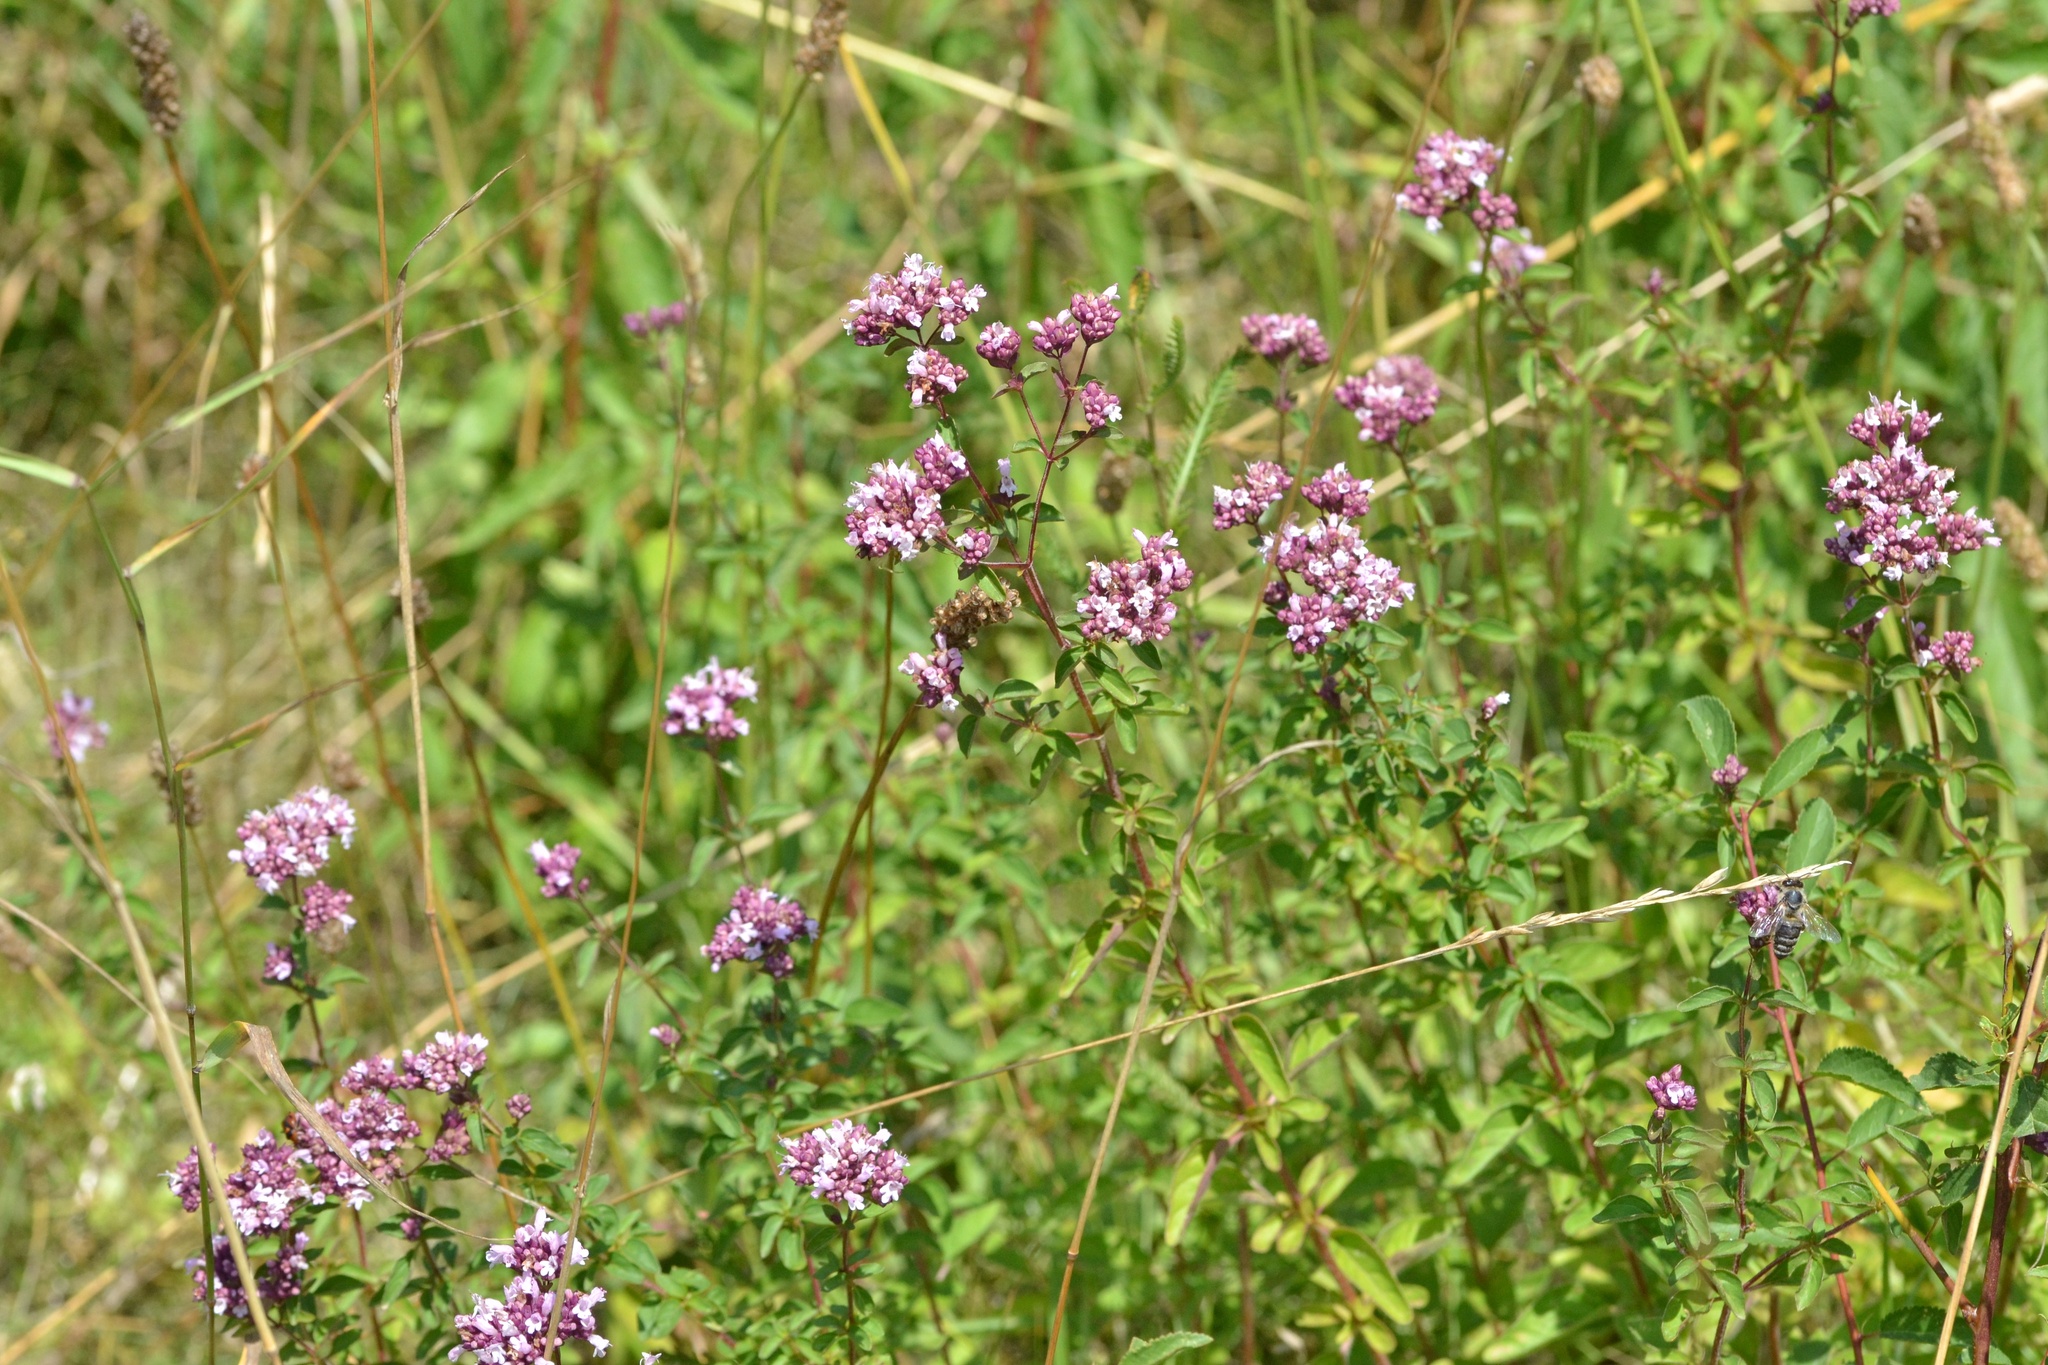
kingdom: Plantae
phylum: Tracheophyta
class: Magnoliopsida
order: Lamiales
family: Lamiaceae
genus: Origanum
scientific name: Origanum vulgare
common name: Wild marjoram
